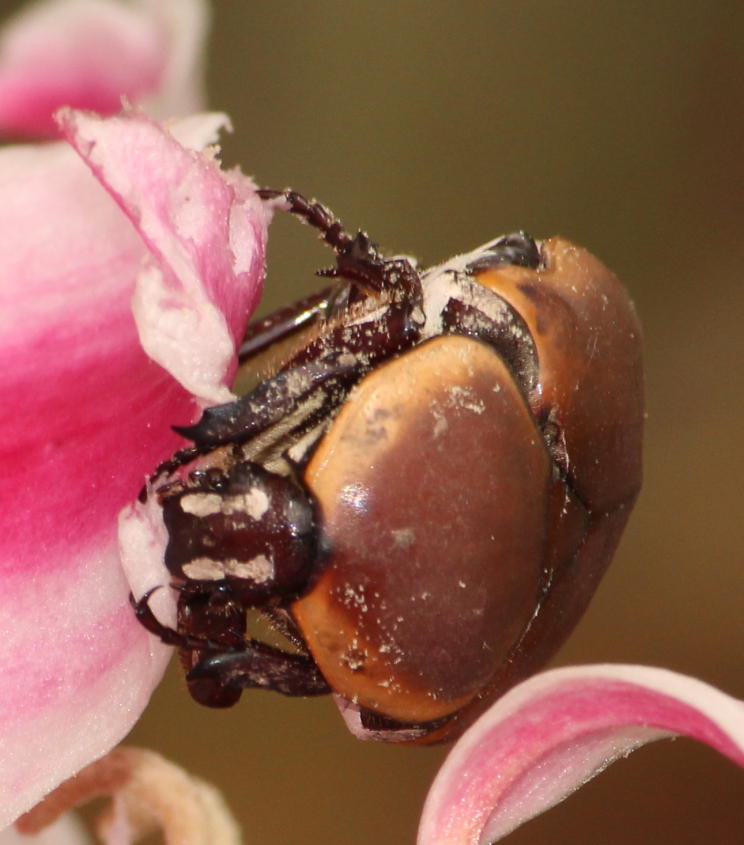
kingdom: Animalia
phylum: Arthropoda
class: Insecta
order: Coleoptera
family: Scarabaeidae
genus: Dischista
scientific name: Dischista rufa
